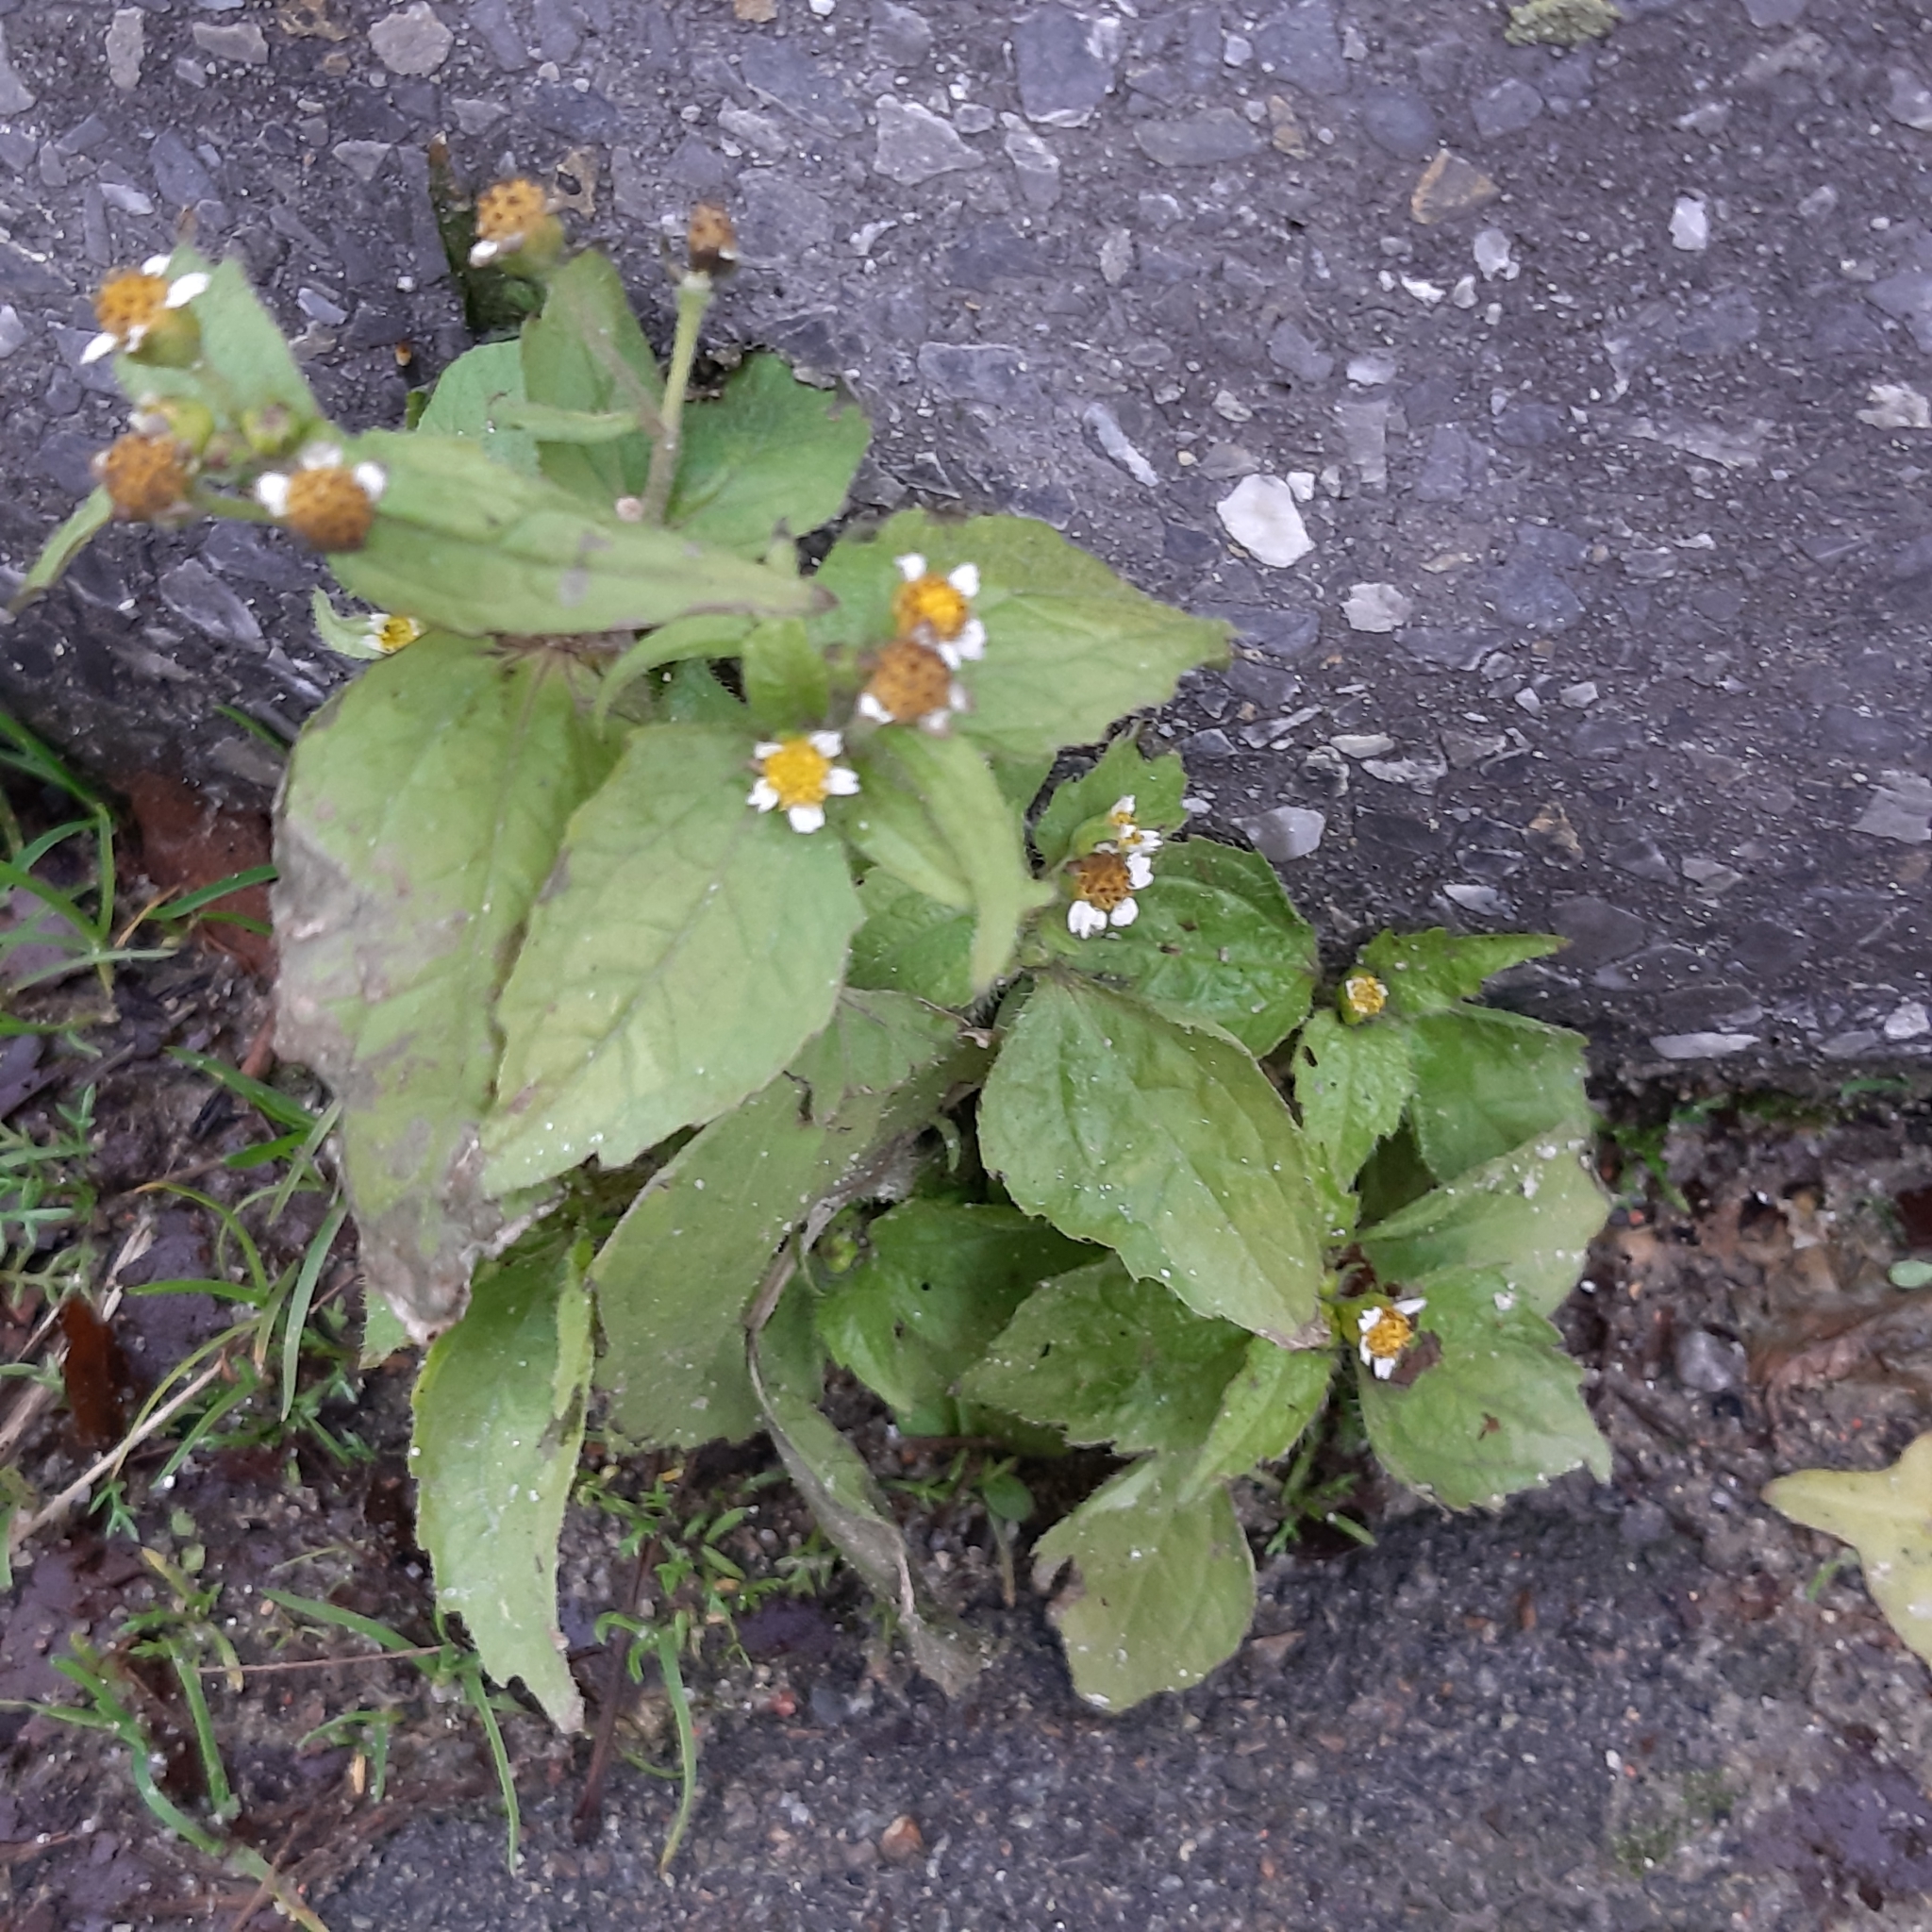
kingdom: Plantae
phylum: Tracheophyta
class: Magnoliopsida
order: Asterales
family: Asteraceae
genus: Galinsoga
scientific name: Galinsoga quadriradiata
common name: Shaggy soldier
